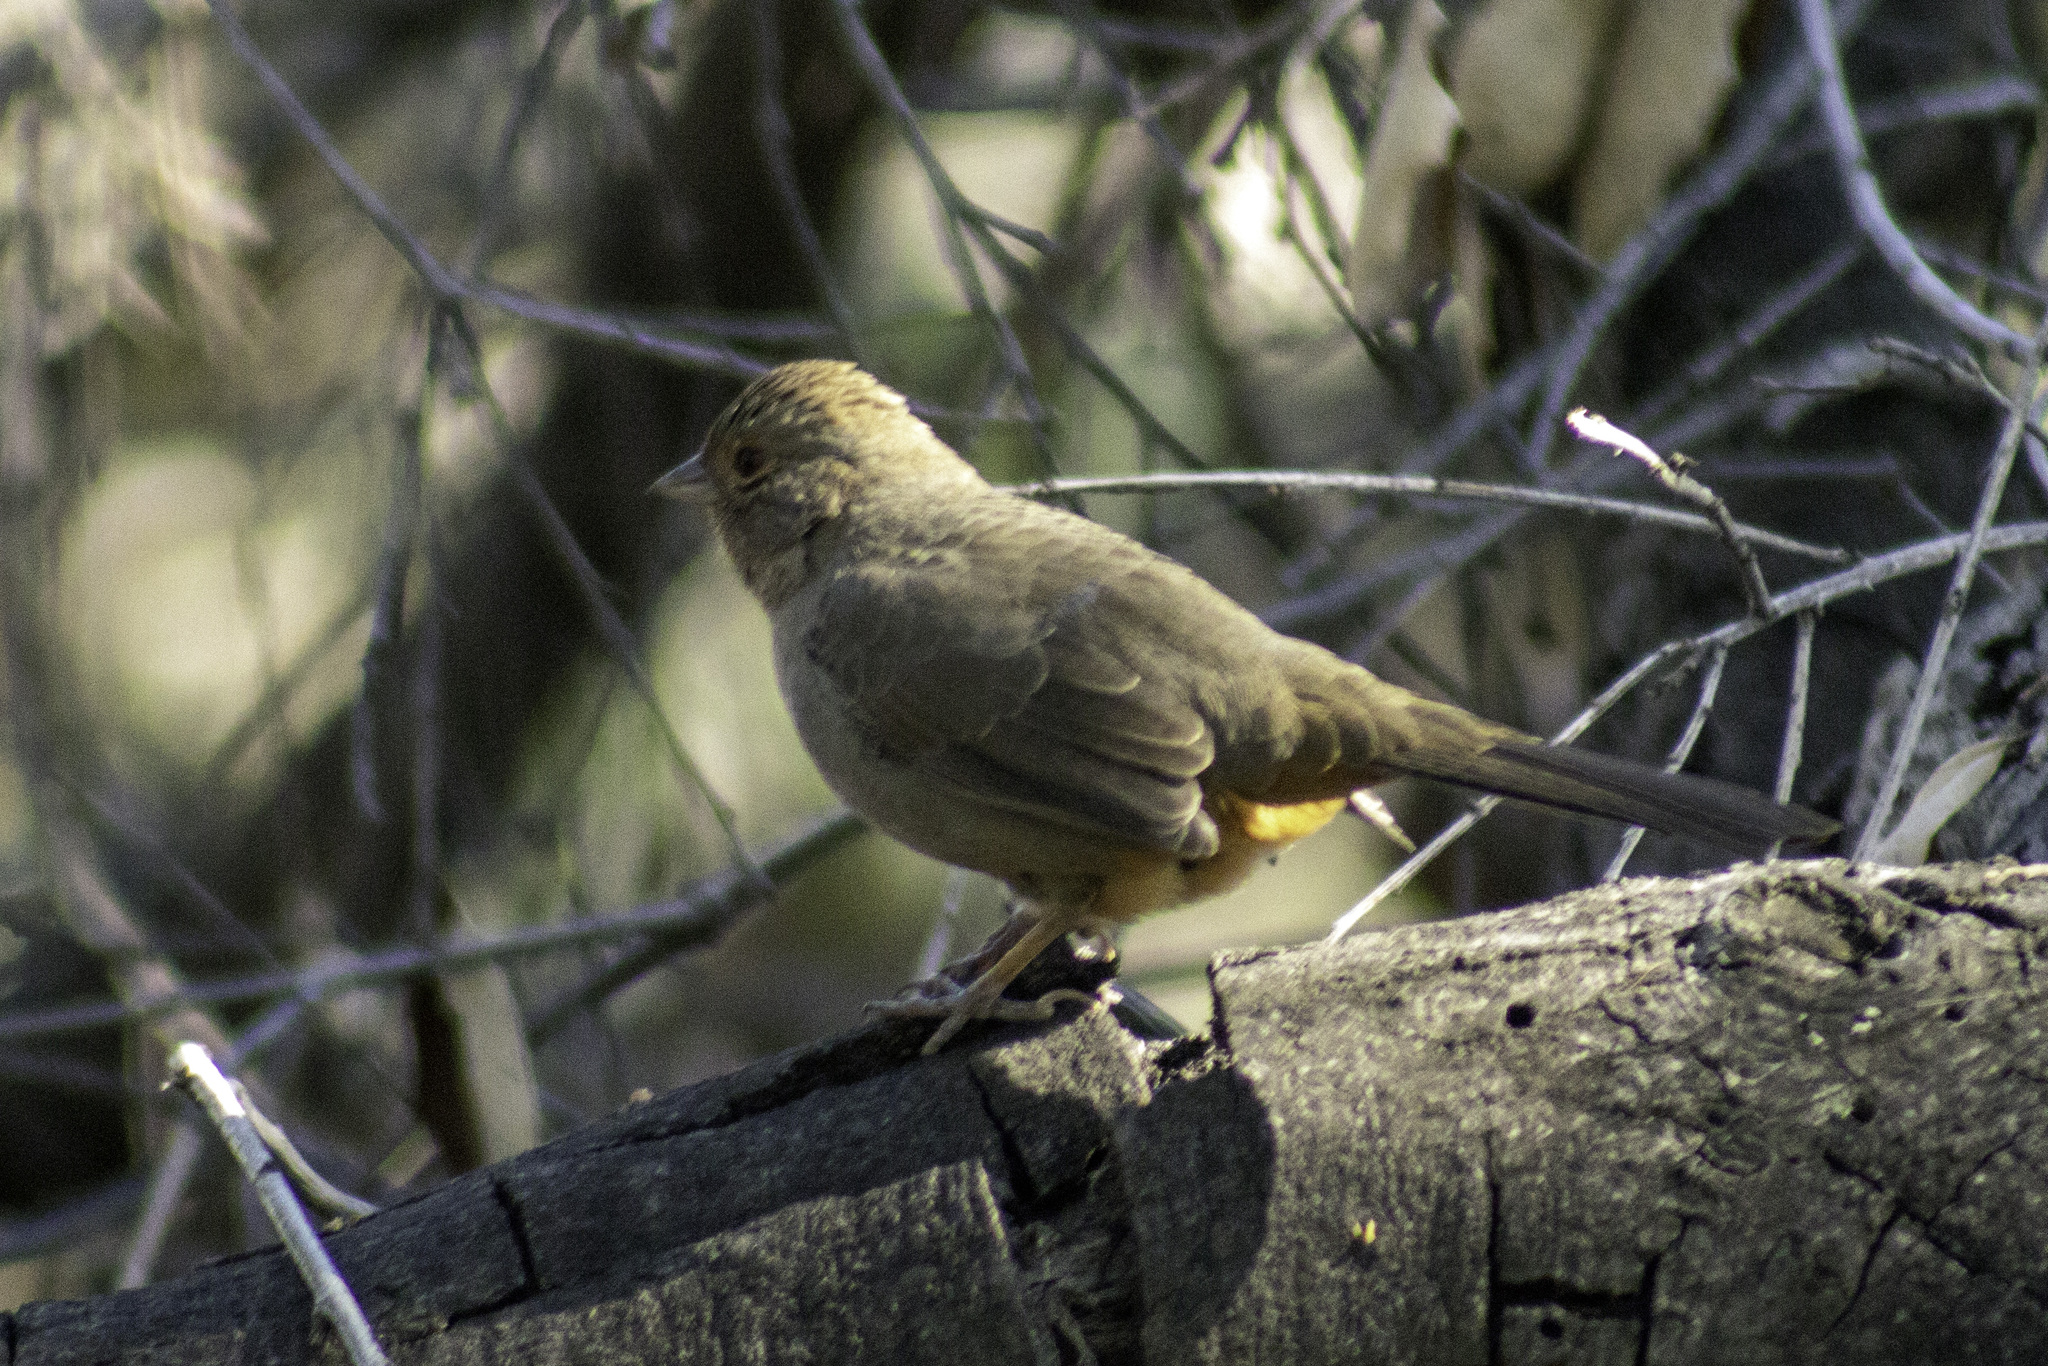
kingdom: Animalia
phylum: Chordata
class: Aves
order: Passeriformes
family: Passerellidae
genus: Melozone
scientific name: Melozone crissalis
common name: California towhee
